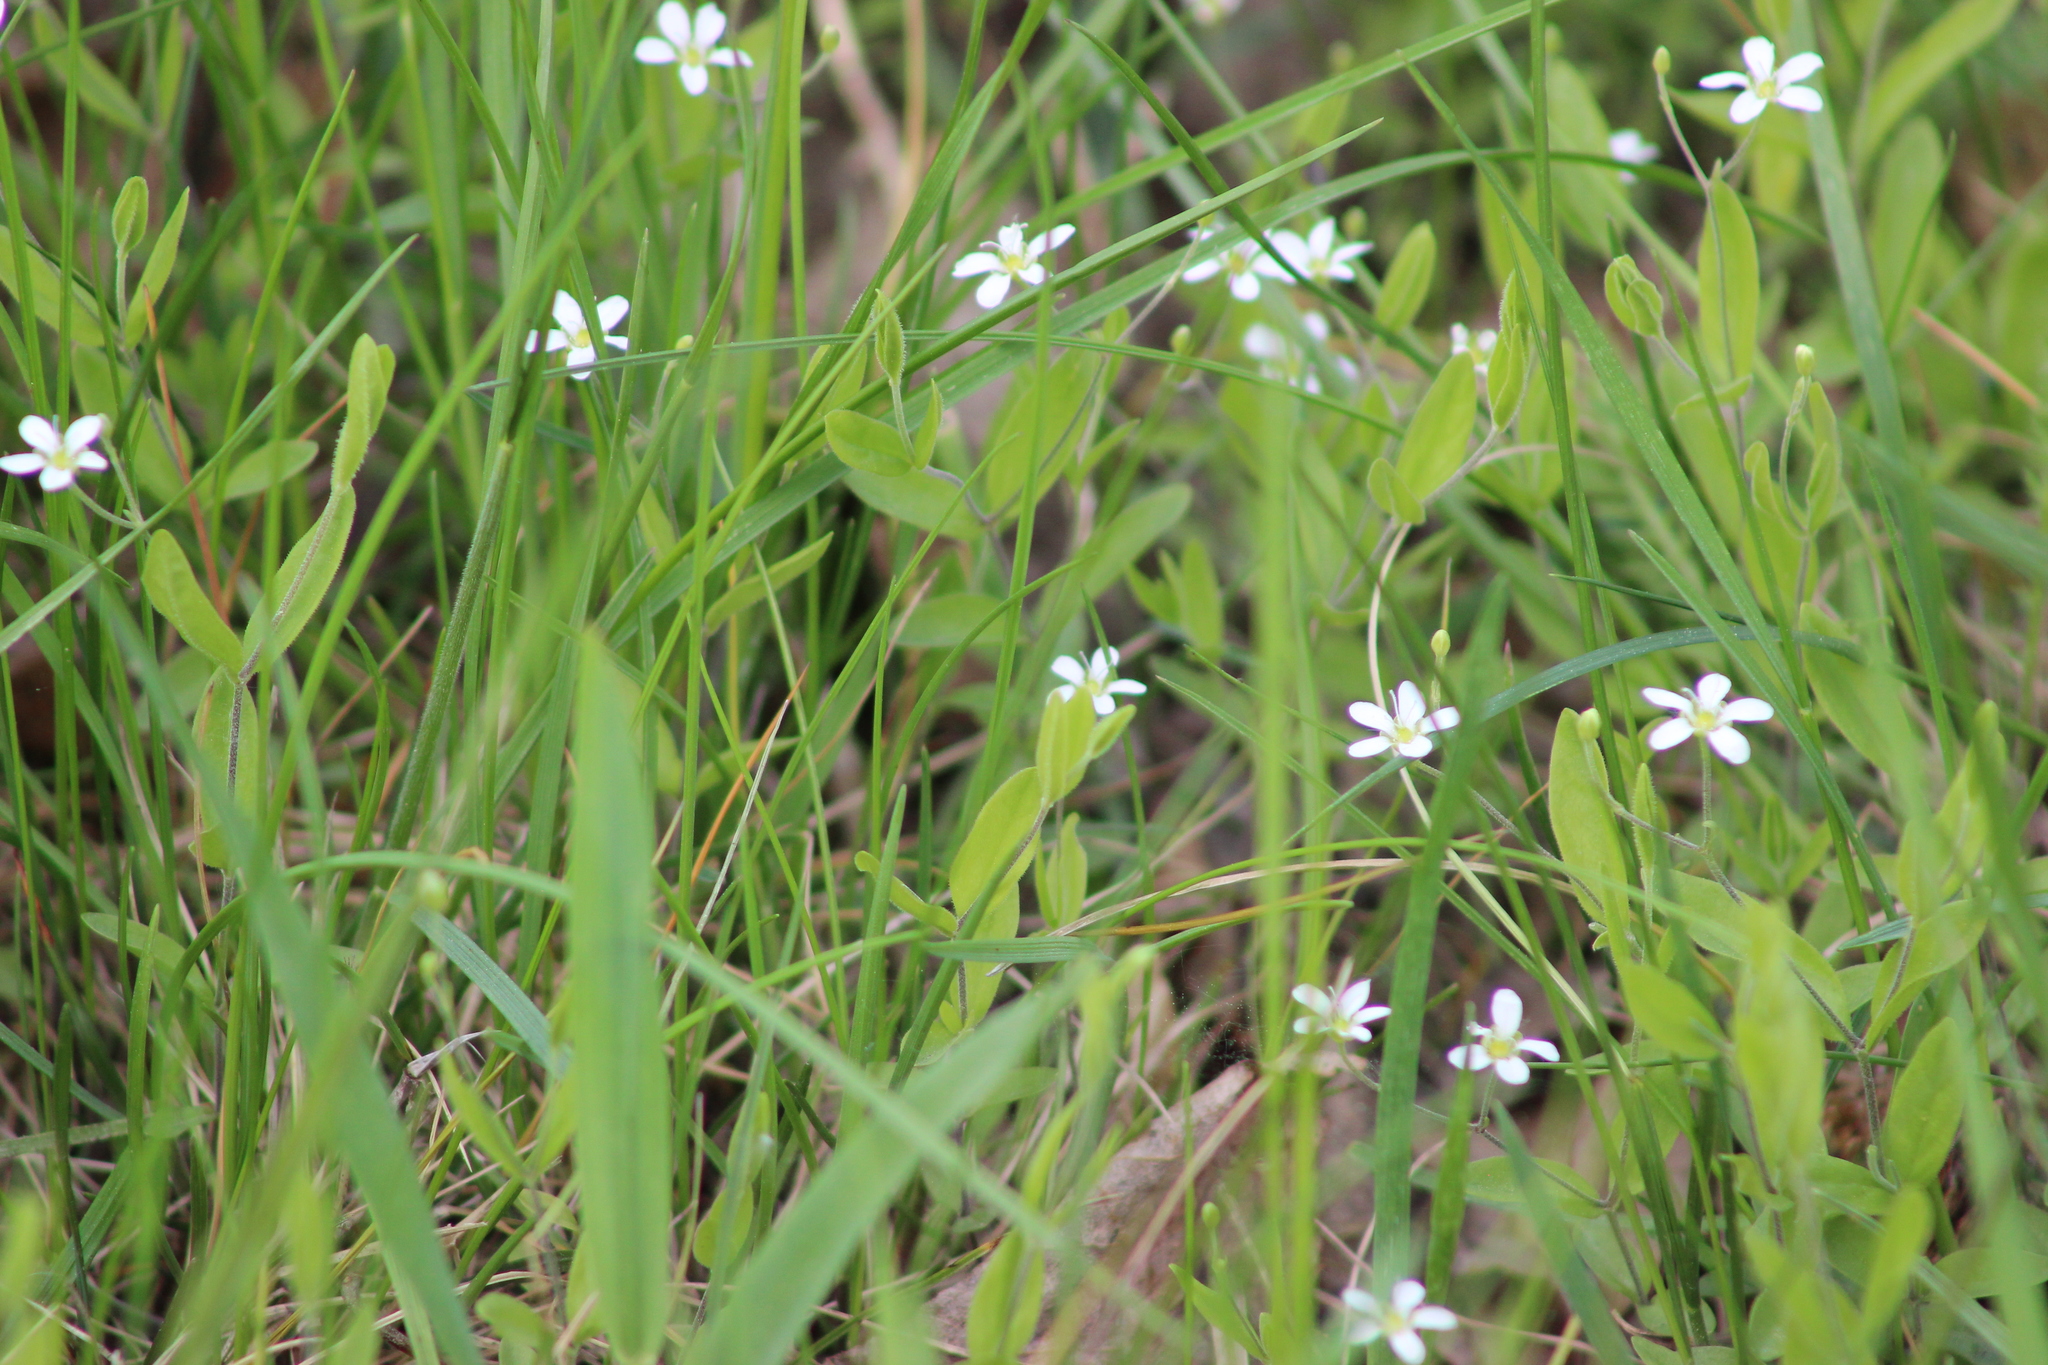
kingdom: Plantae
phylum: Tracheophyta
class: Magnoliopsida
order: Caryophyllales
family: Caryophyllaceae
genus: Moehringia
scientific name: Moehringia lateriflora
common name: Blunt-leaved sandwort
